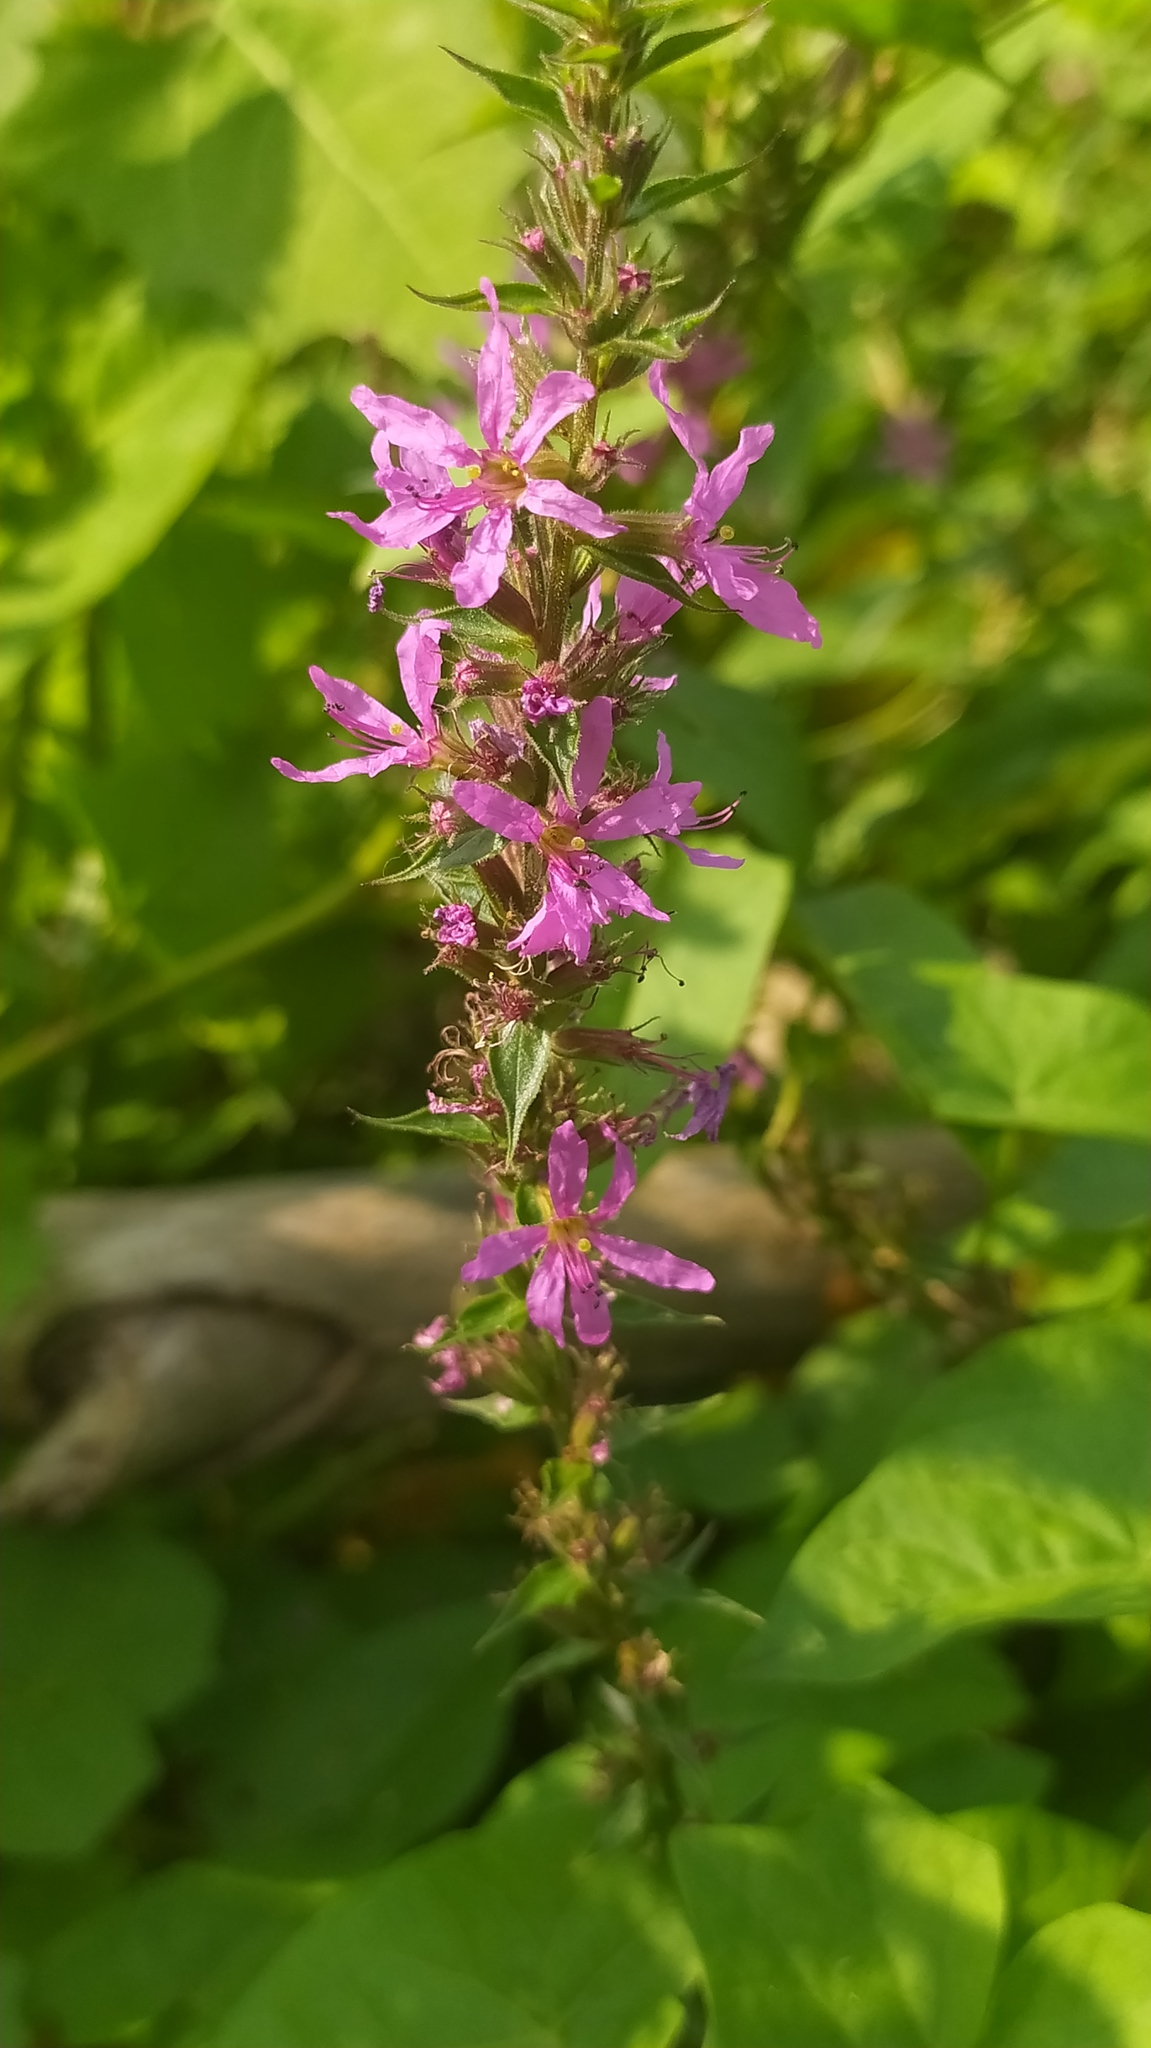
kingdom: Plantae
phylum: Tracheophyta
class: Magnoliopsida
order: Myrtales
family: Lythraceae
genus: Lythrum
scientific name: Lythrum salicaria
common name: Purple loosestrife
